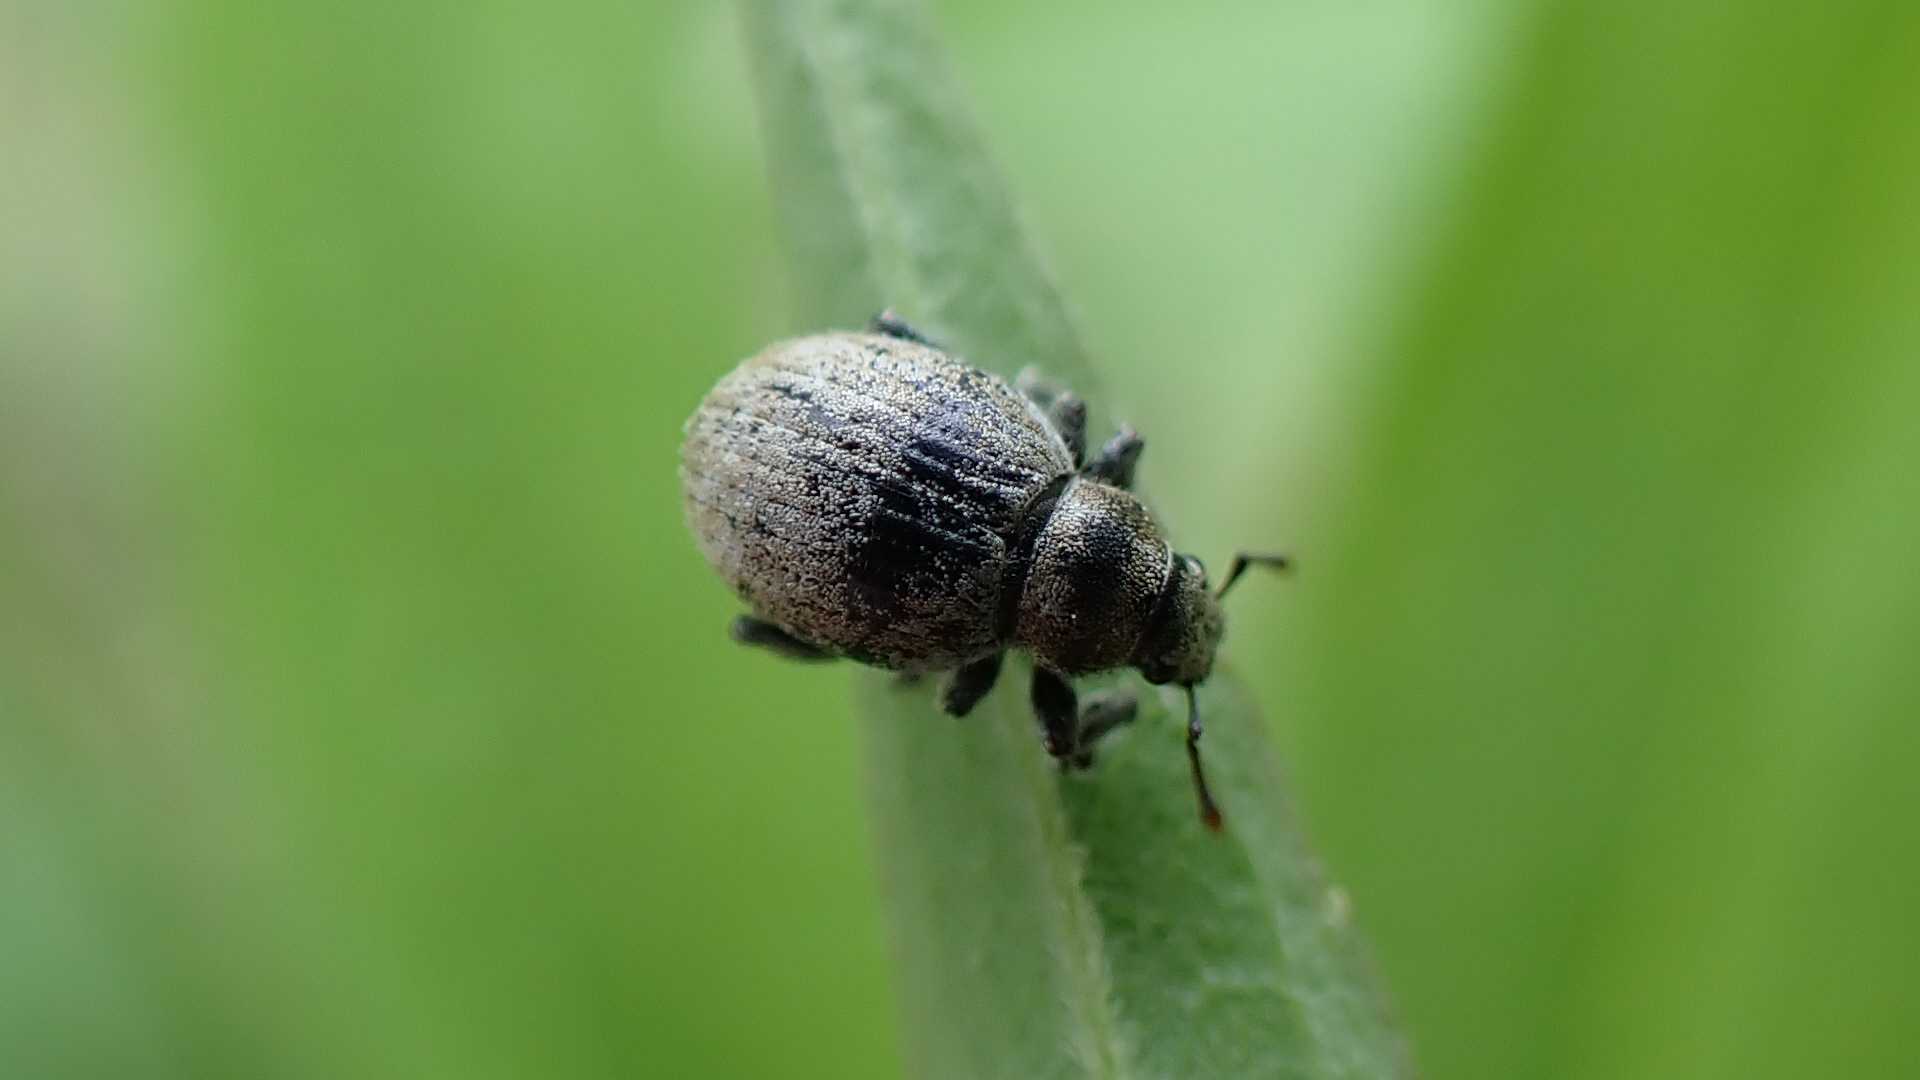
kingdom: Animalia
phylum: Arthropoda
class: Insecta
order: Coleoptera
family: Curculionidae
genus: Philopedon
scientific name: Philopedon plagiatum
